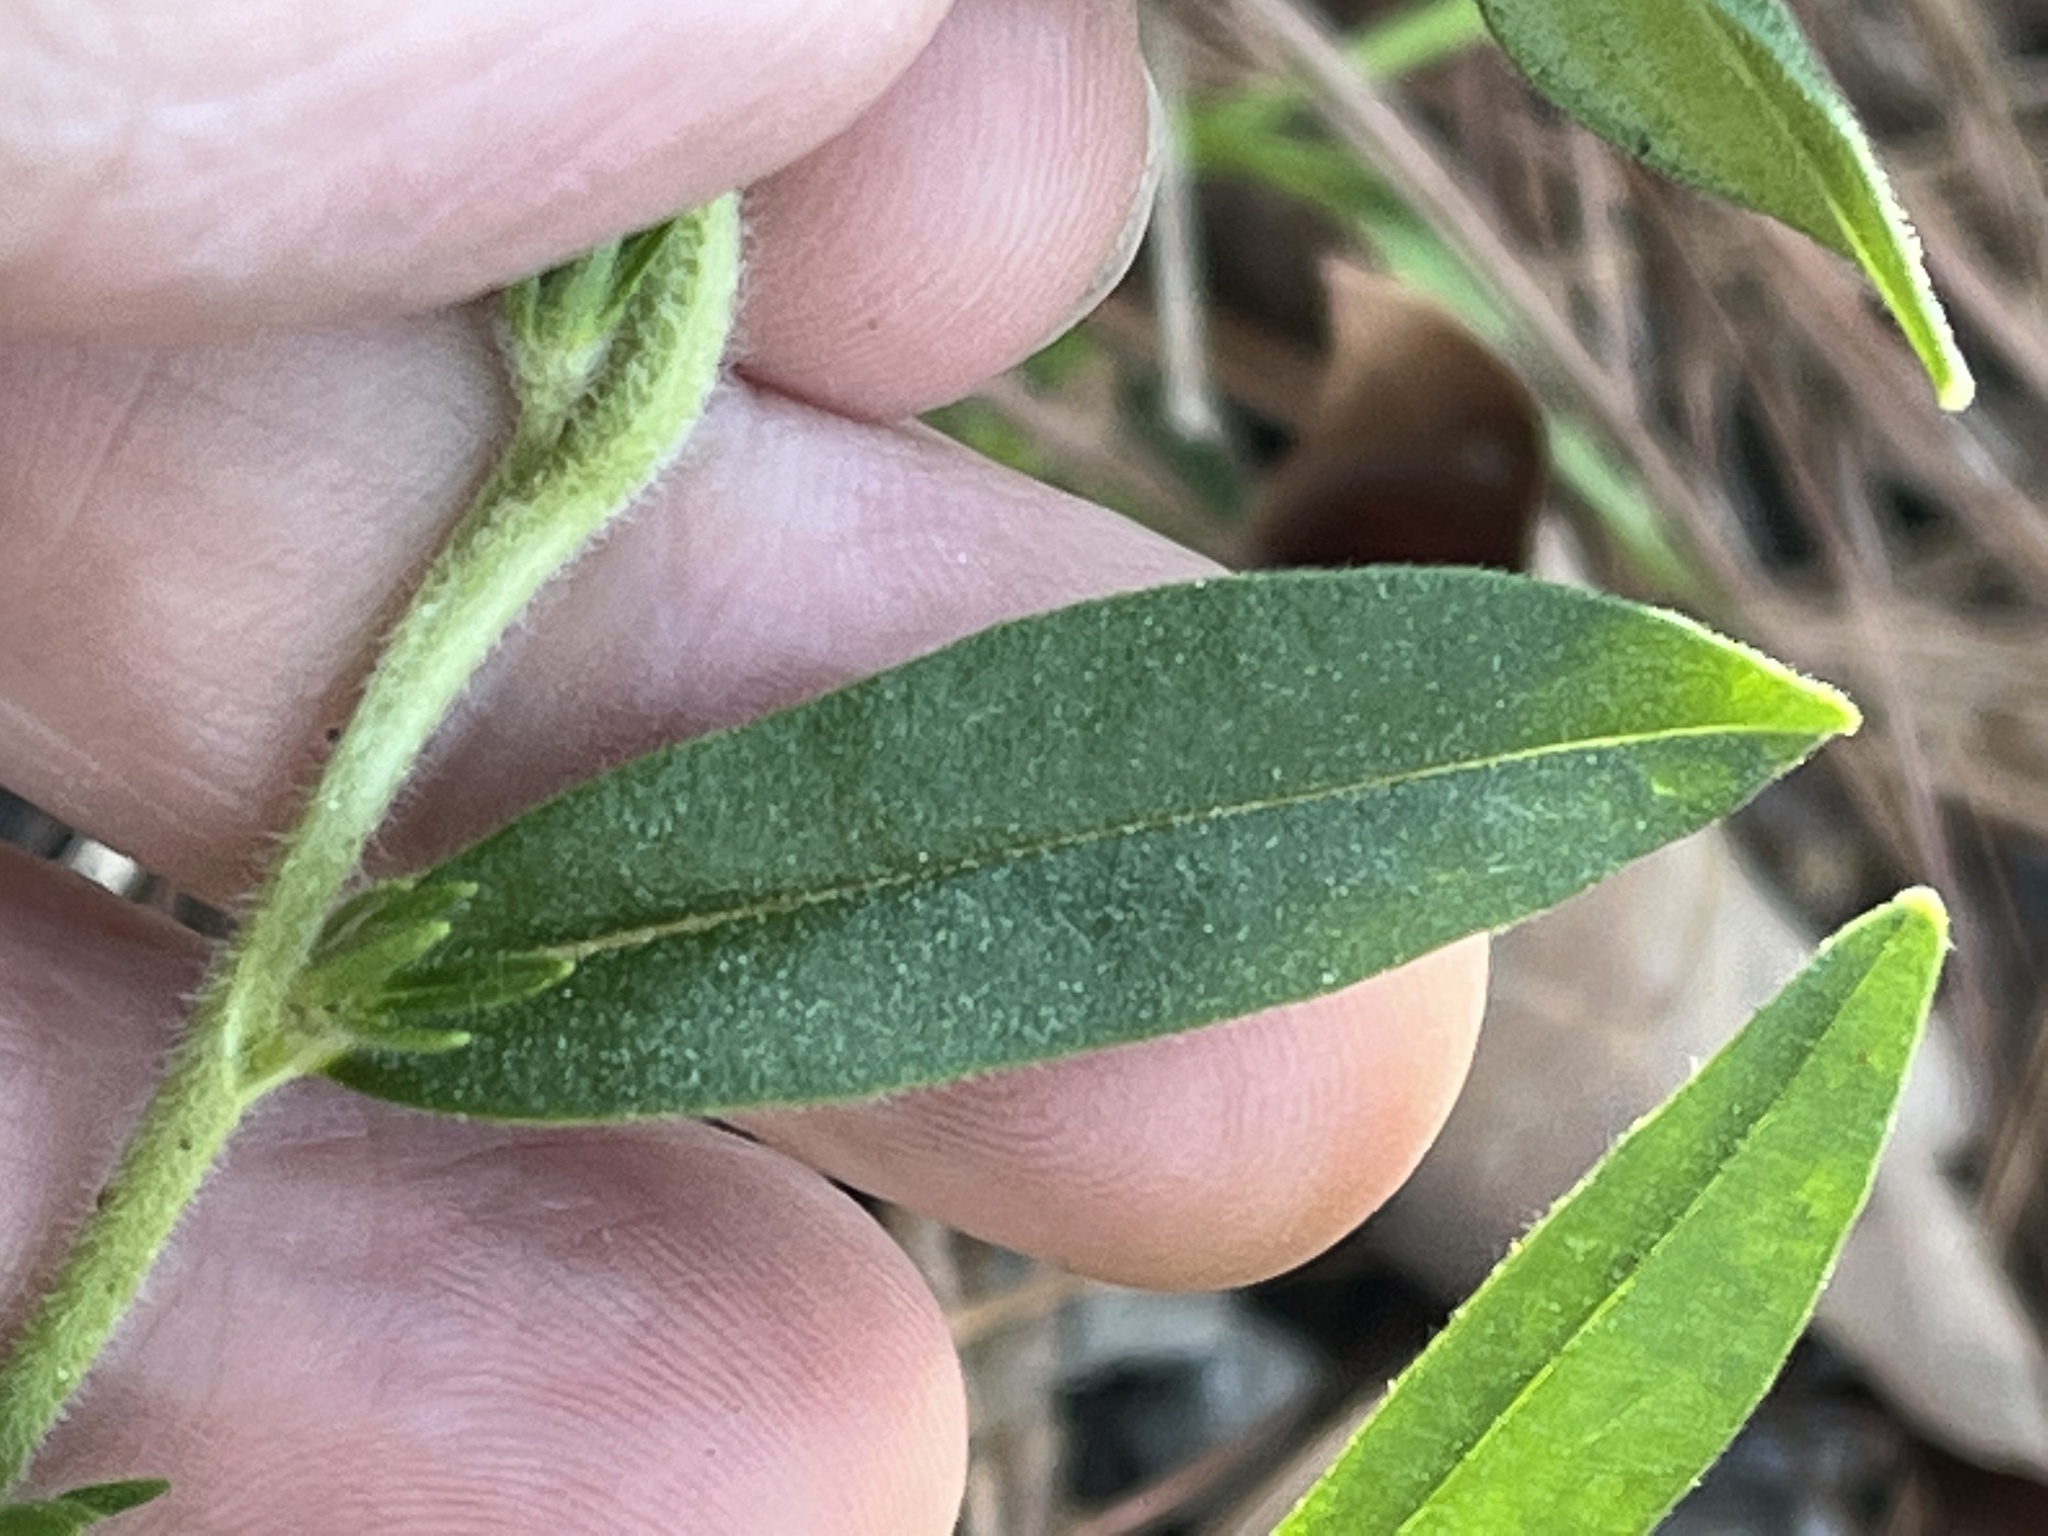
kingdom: Plantae
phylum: Tracheophyta
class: Magnoliopsida
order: Boraginales
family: Boraginaceae
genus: Lithospermum
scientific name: Lithospermum canescens
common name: Hoary puccoon
